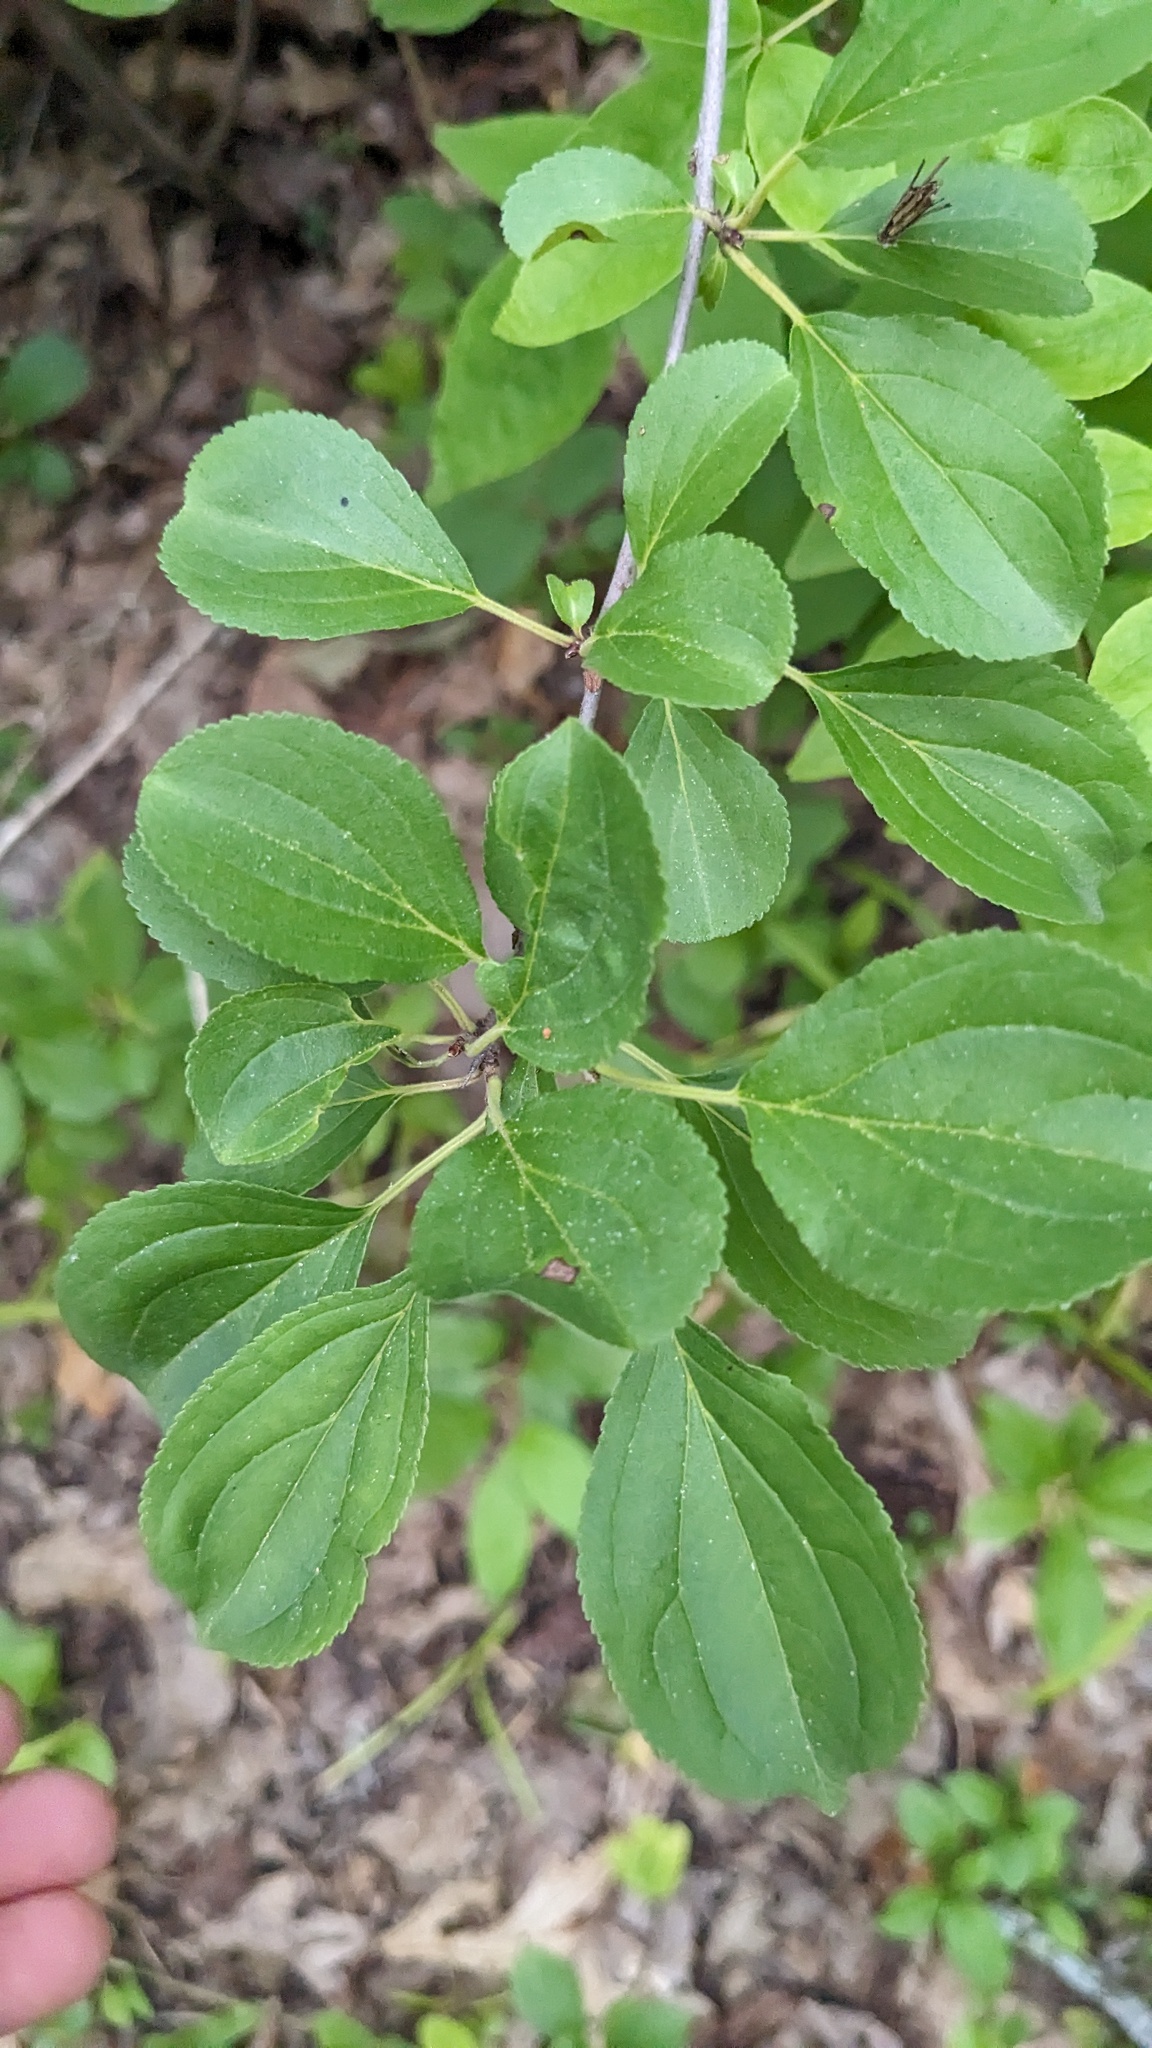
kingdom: Plantae
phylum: Tracheophyta
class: Magnoliopsida
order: Rosales
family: Rhamnaceae
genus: Rhamnus
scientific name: Rhamnus cathartica
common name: Common buckthorn
